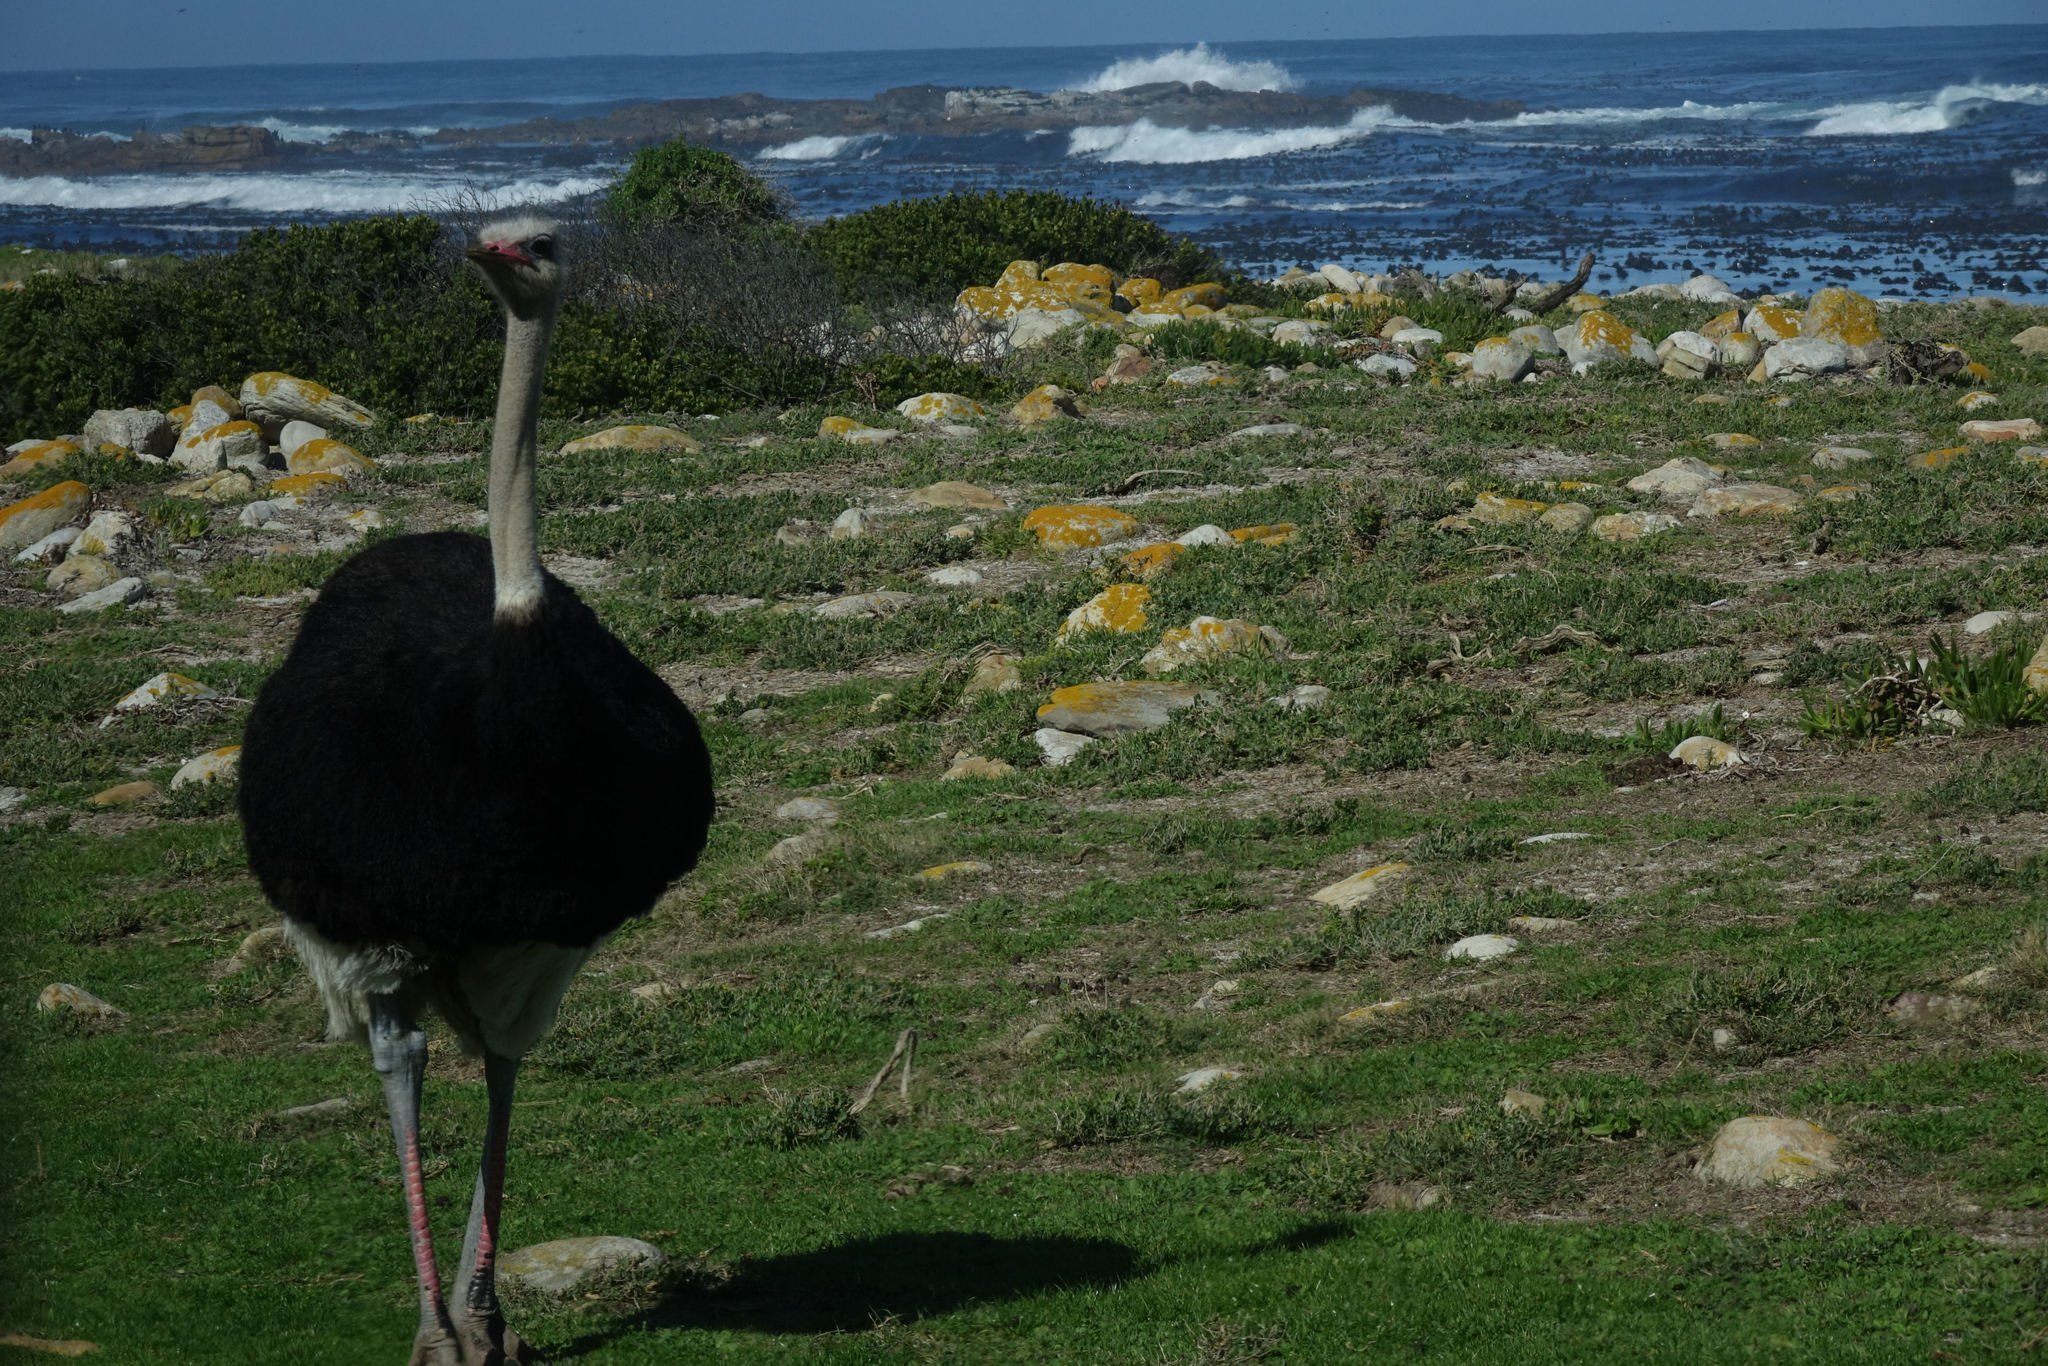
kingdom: Animalia
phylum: Chordata
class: Aves
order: Struthioniformes
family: Struthionidae
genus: Struthio
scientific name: Struthio camelus
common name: Common ostrich
